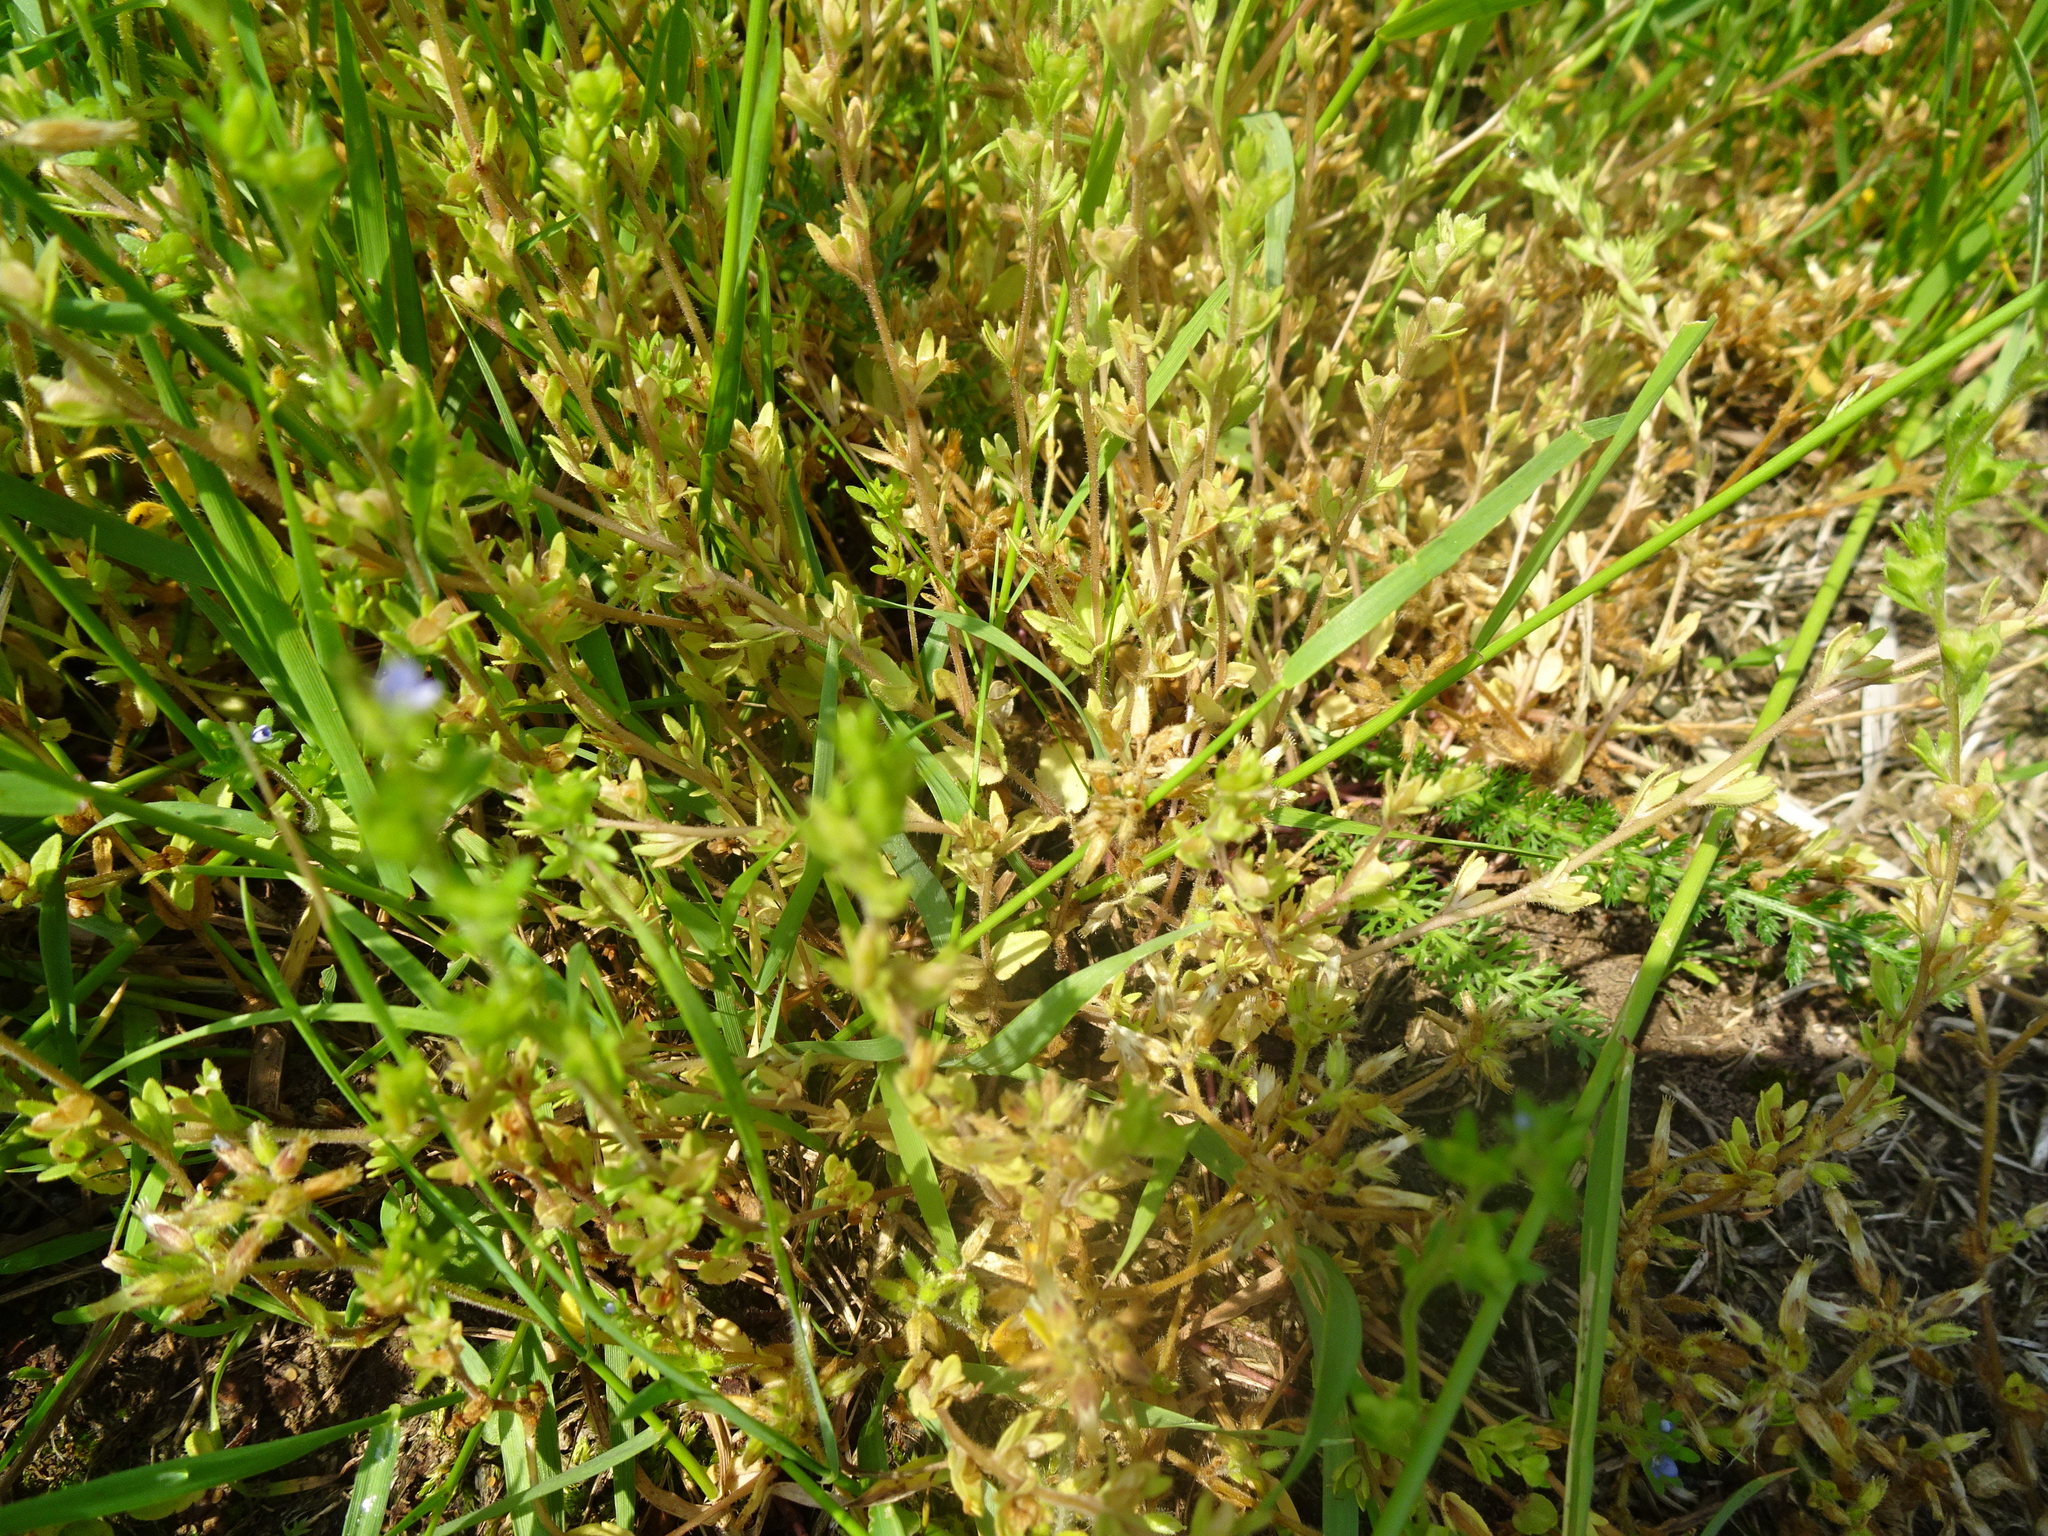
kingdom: Plantae
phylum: Tracheophyta
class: Magnoliopsida
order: Lamiales
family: Plantaginaceae
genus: Veronica
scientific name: Veronica arvensis
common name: Corn speedwell
